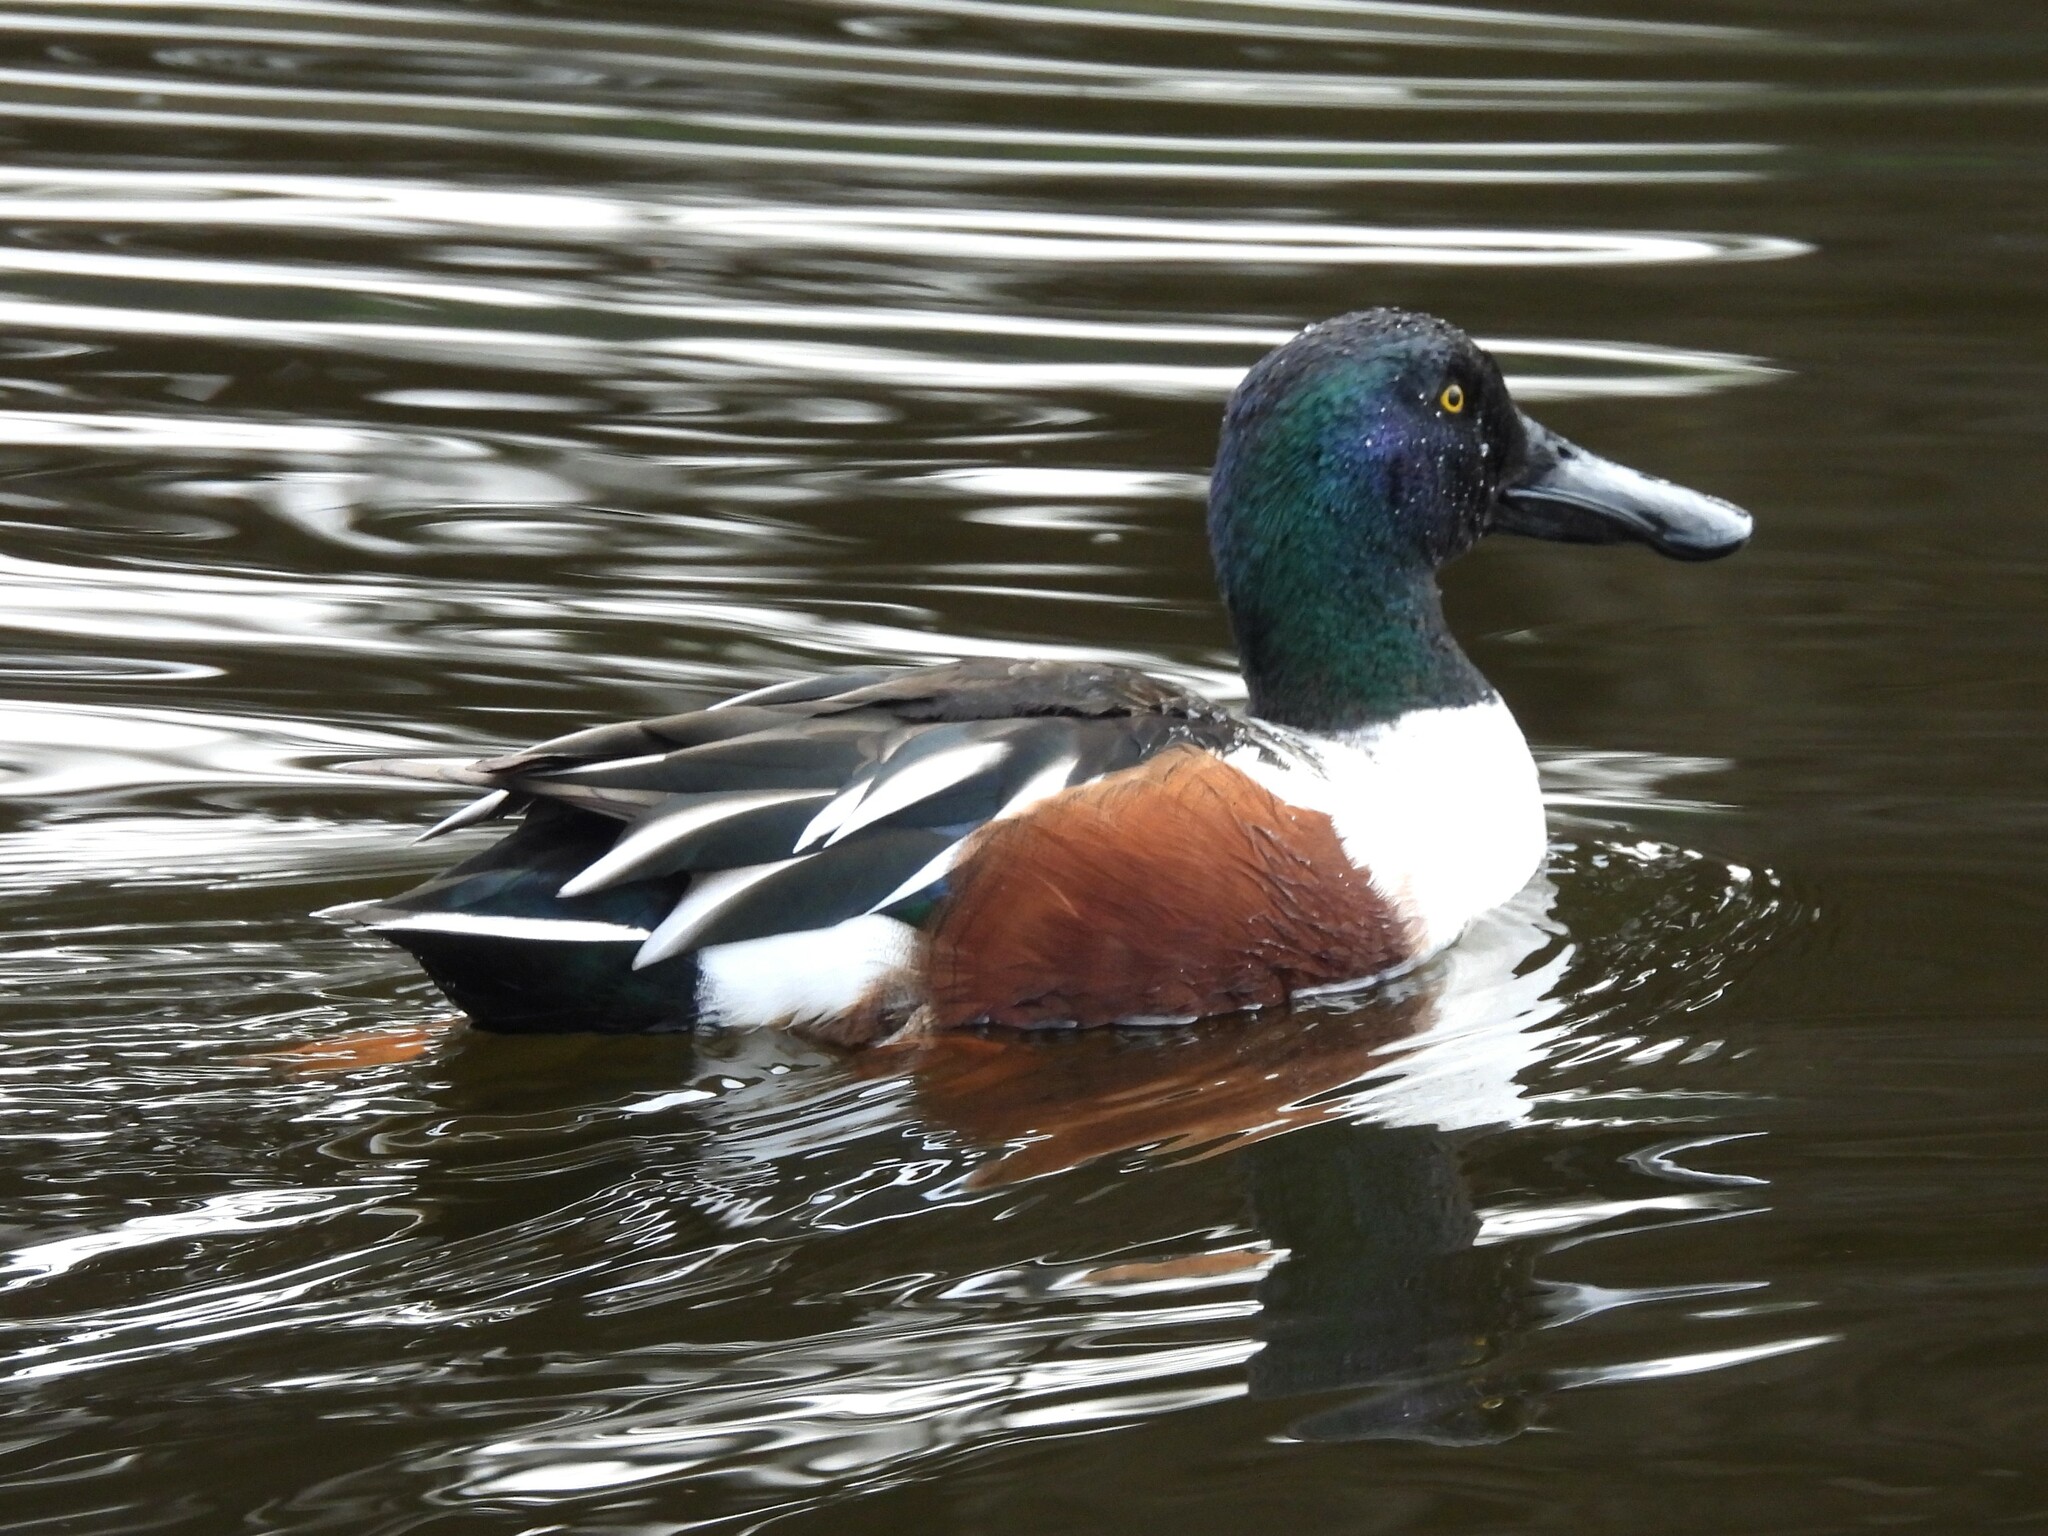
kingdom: Animalia
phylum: Chordata
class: Aves
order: Anseriformes
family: Anatidae
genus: Spatula
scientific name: Spatula clypeata
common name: Northern shoveler
